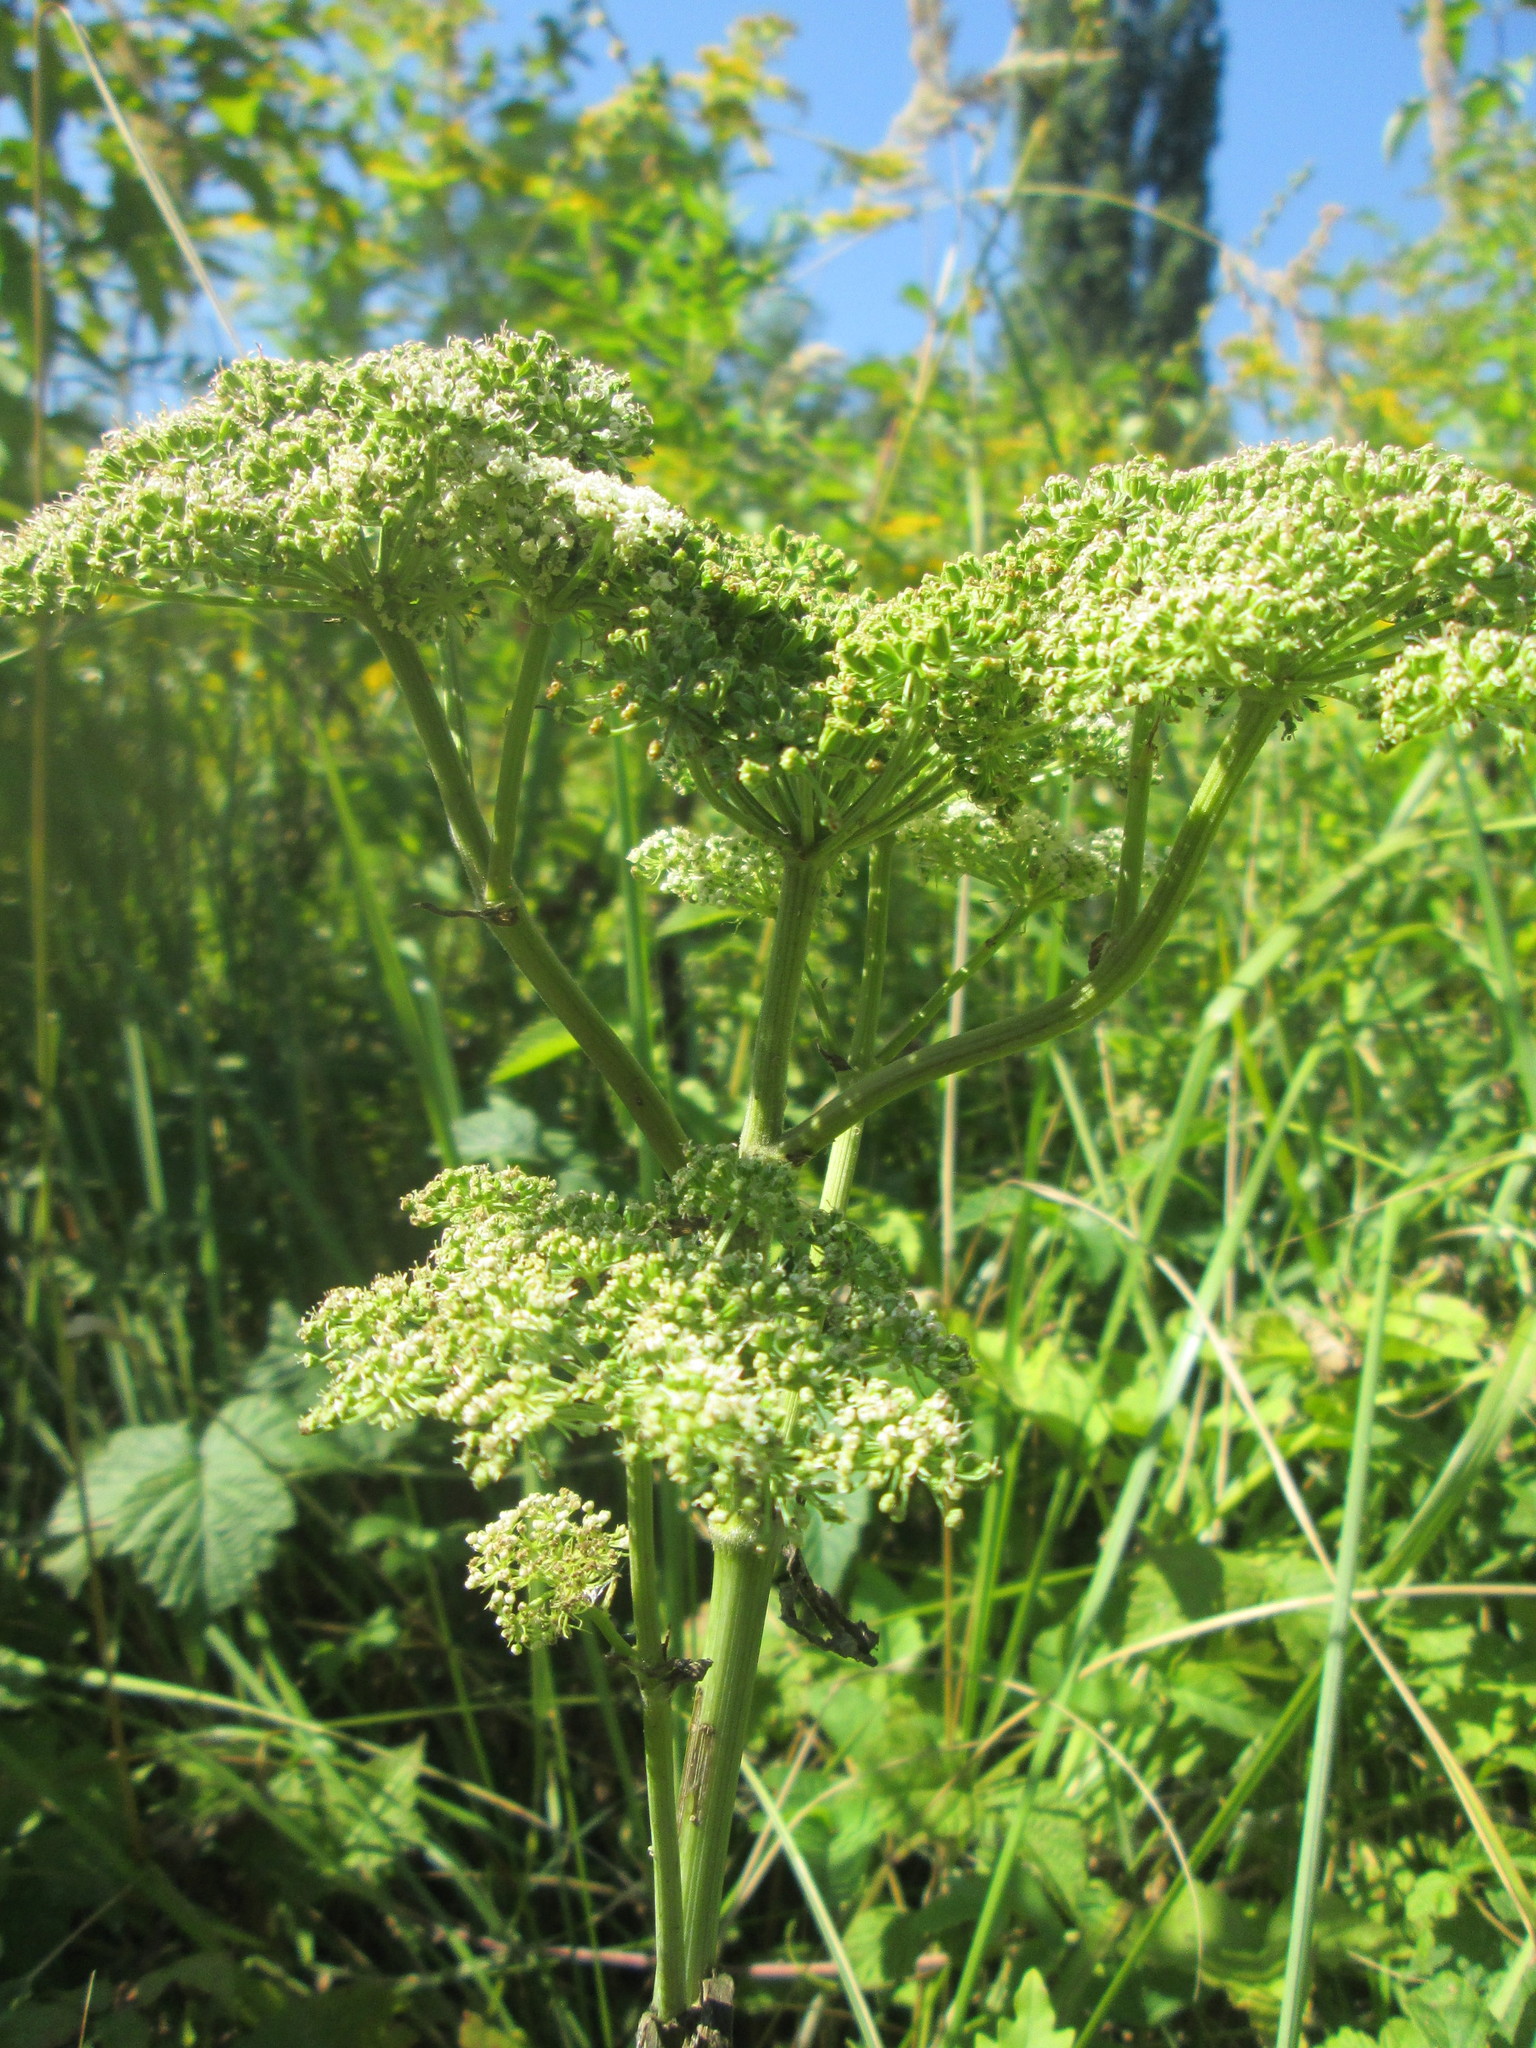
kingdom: Plantae
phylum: Tracheophyta
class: Magnoliopsida
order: Apiales
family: Apiaceae
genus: Angelica
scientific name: Angelica sylvestris
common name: Wild angelica
